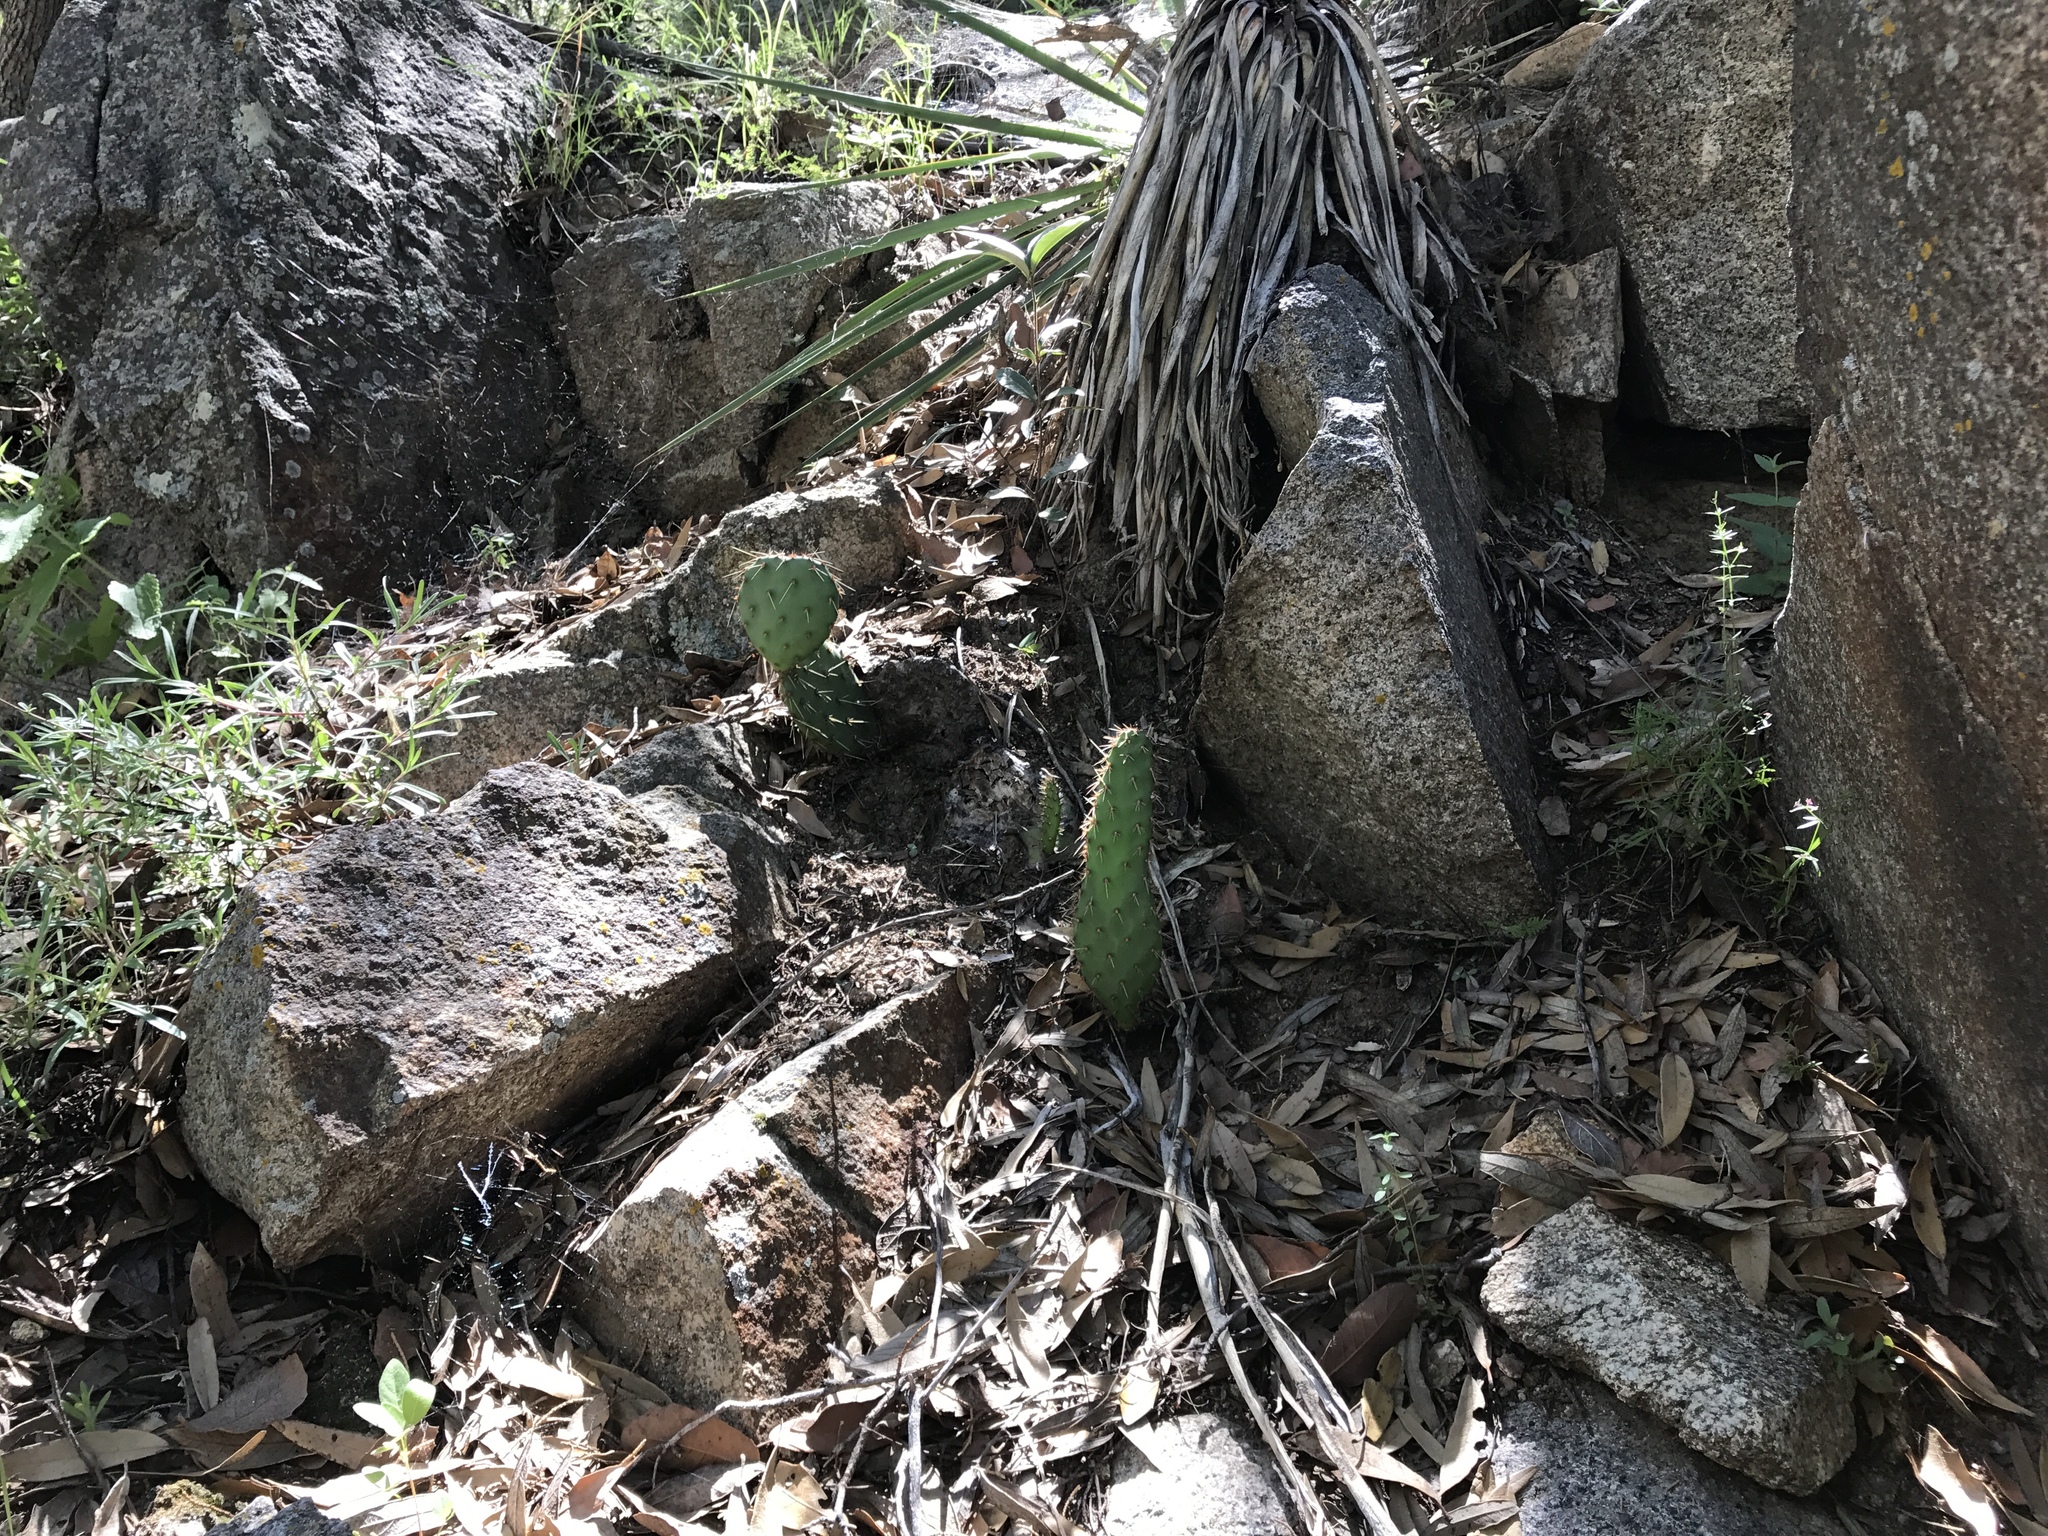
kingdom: Plantae
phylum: Tracheophyta
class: Magnoliopsida
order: Caryophyllales
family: Cactaceae
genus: Opuntia
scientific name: Opuntia engelmannii
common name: Cactus-apple
